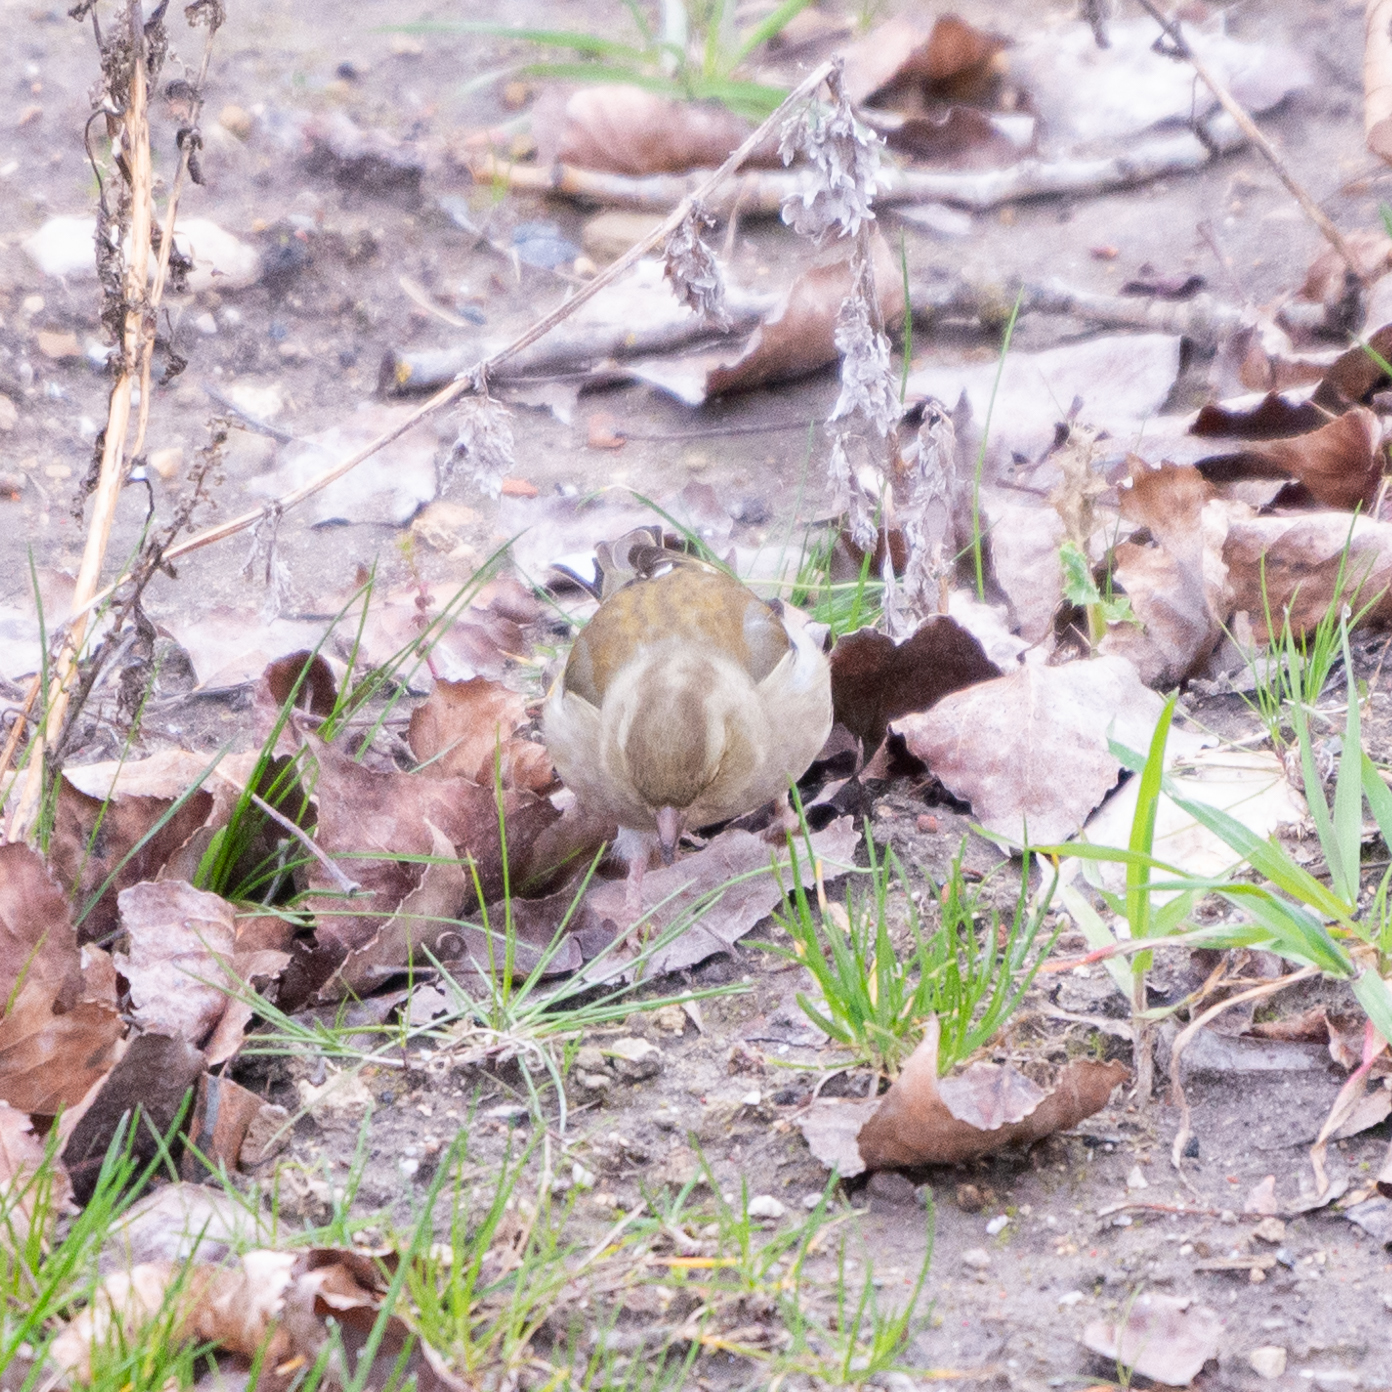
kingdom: Animalia
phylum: Chordata
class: Aves
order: Passeriformes
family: Fringillidae
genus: Fringilla
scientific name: Fringilla coelebs
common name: Common chaffinch
